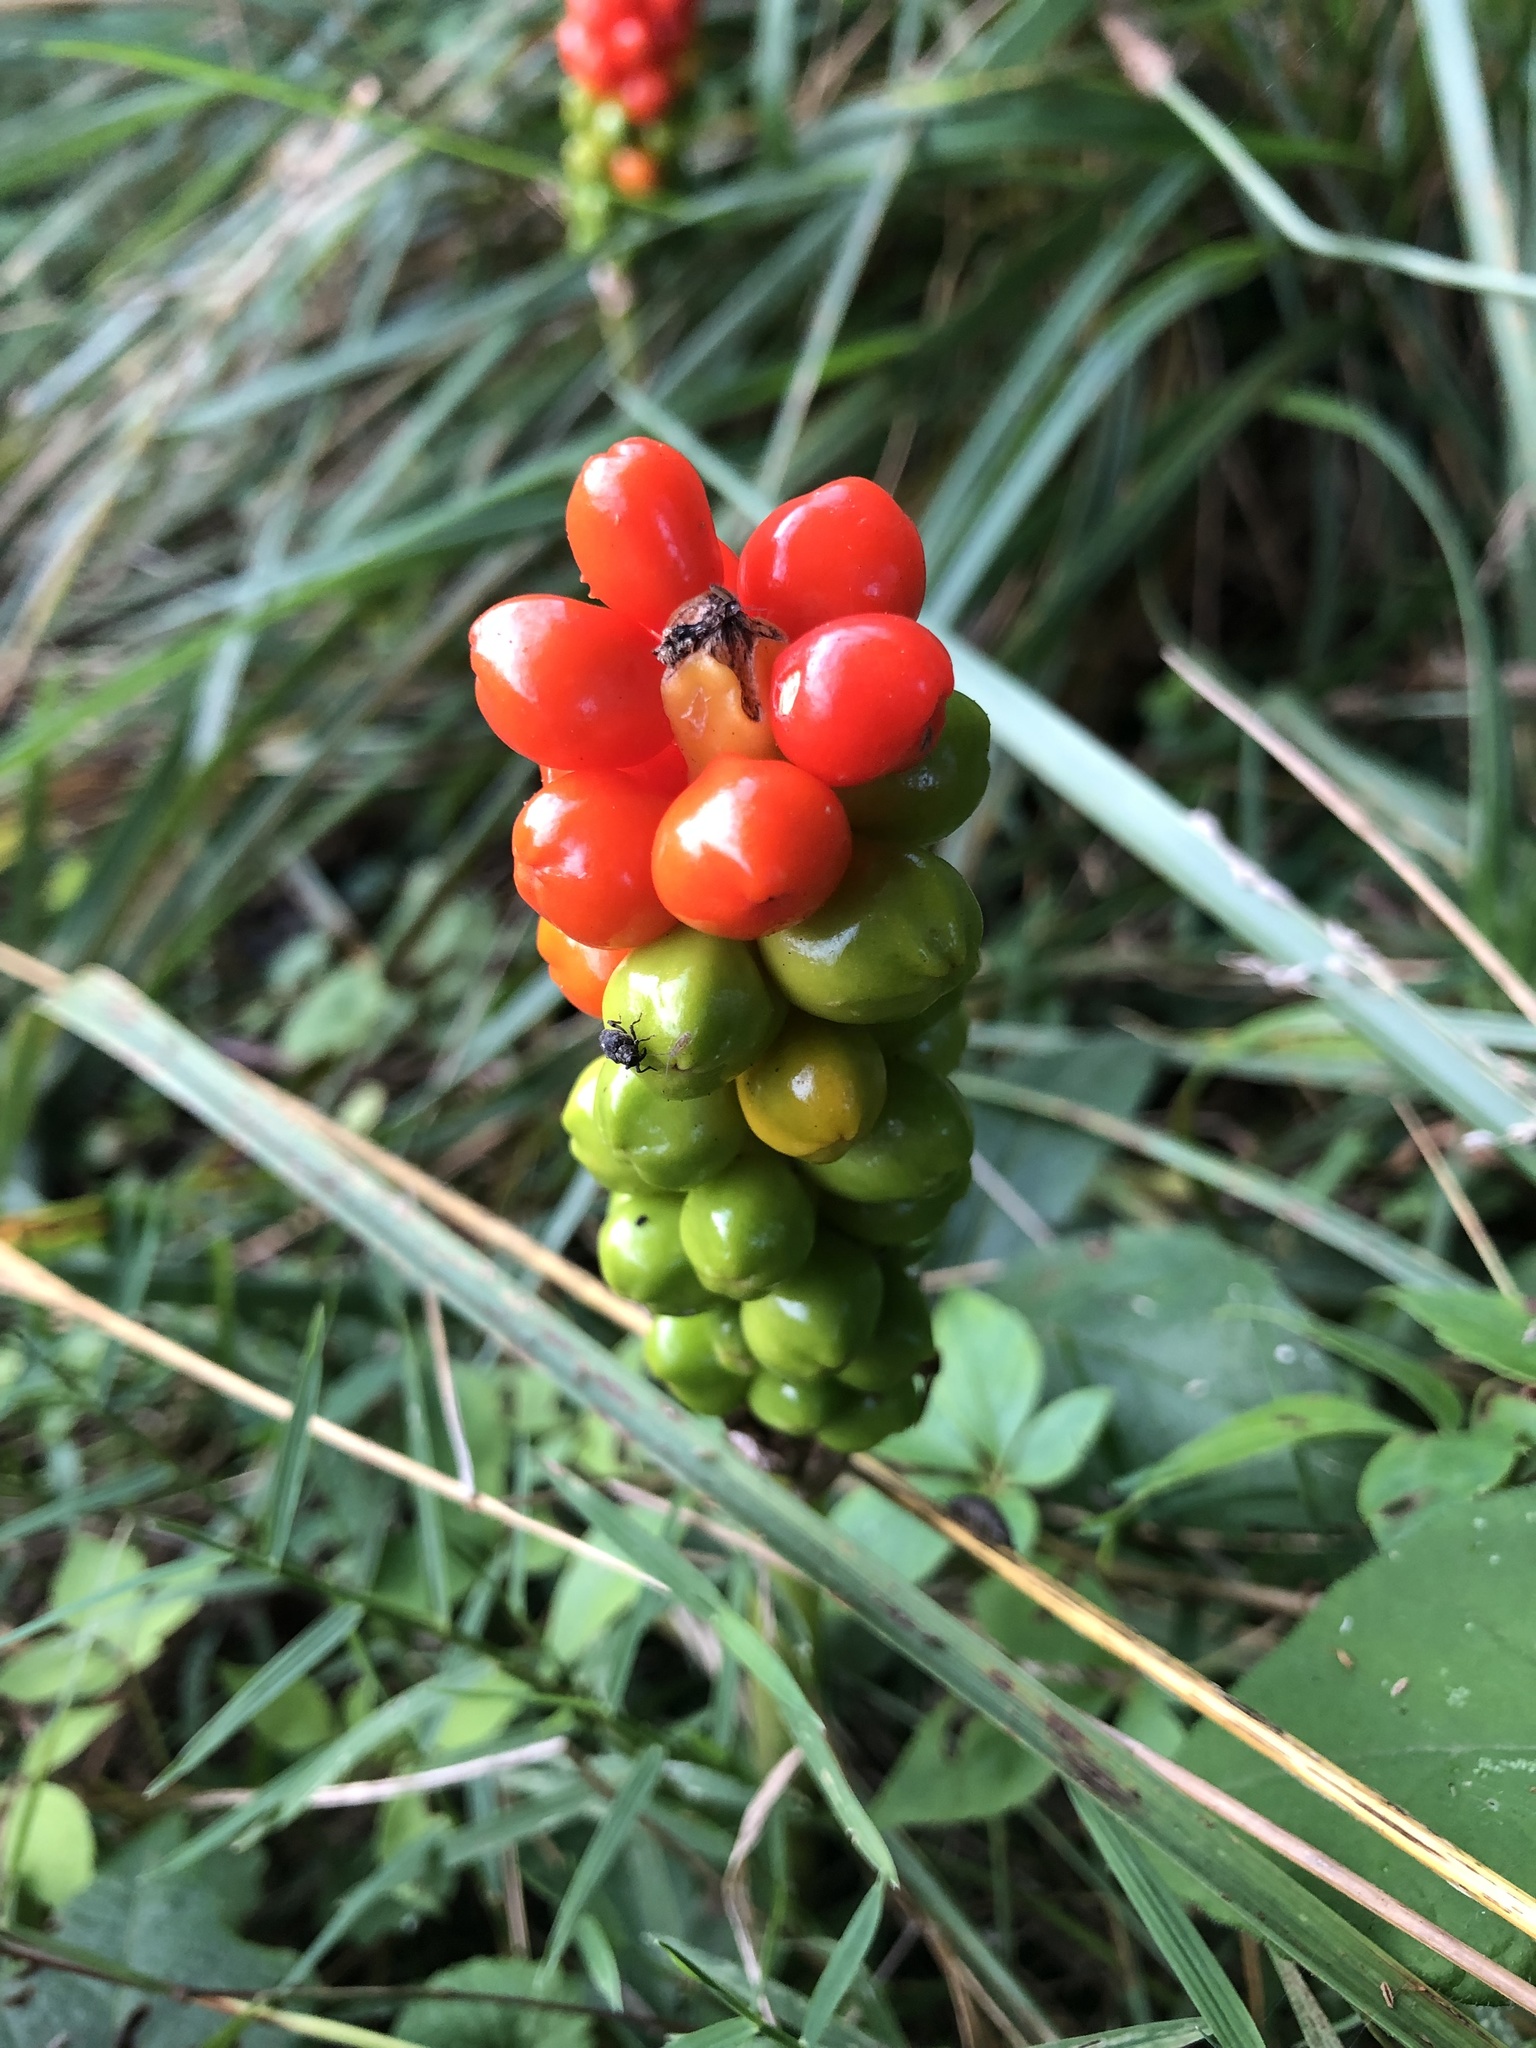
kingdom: Plantae
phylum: Tracheophyta
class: Liliopsida
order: Alismatales
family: Araceae
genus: Arum
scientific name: Arum italicum
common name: Italian lords-and-ladies
